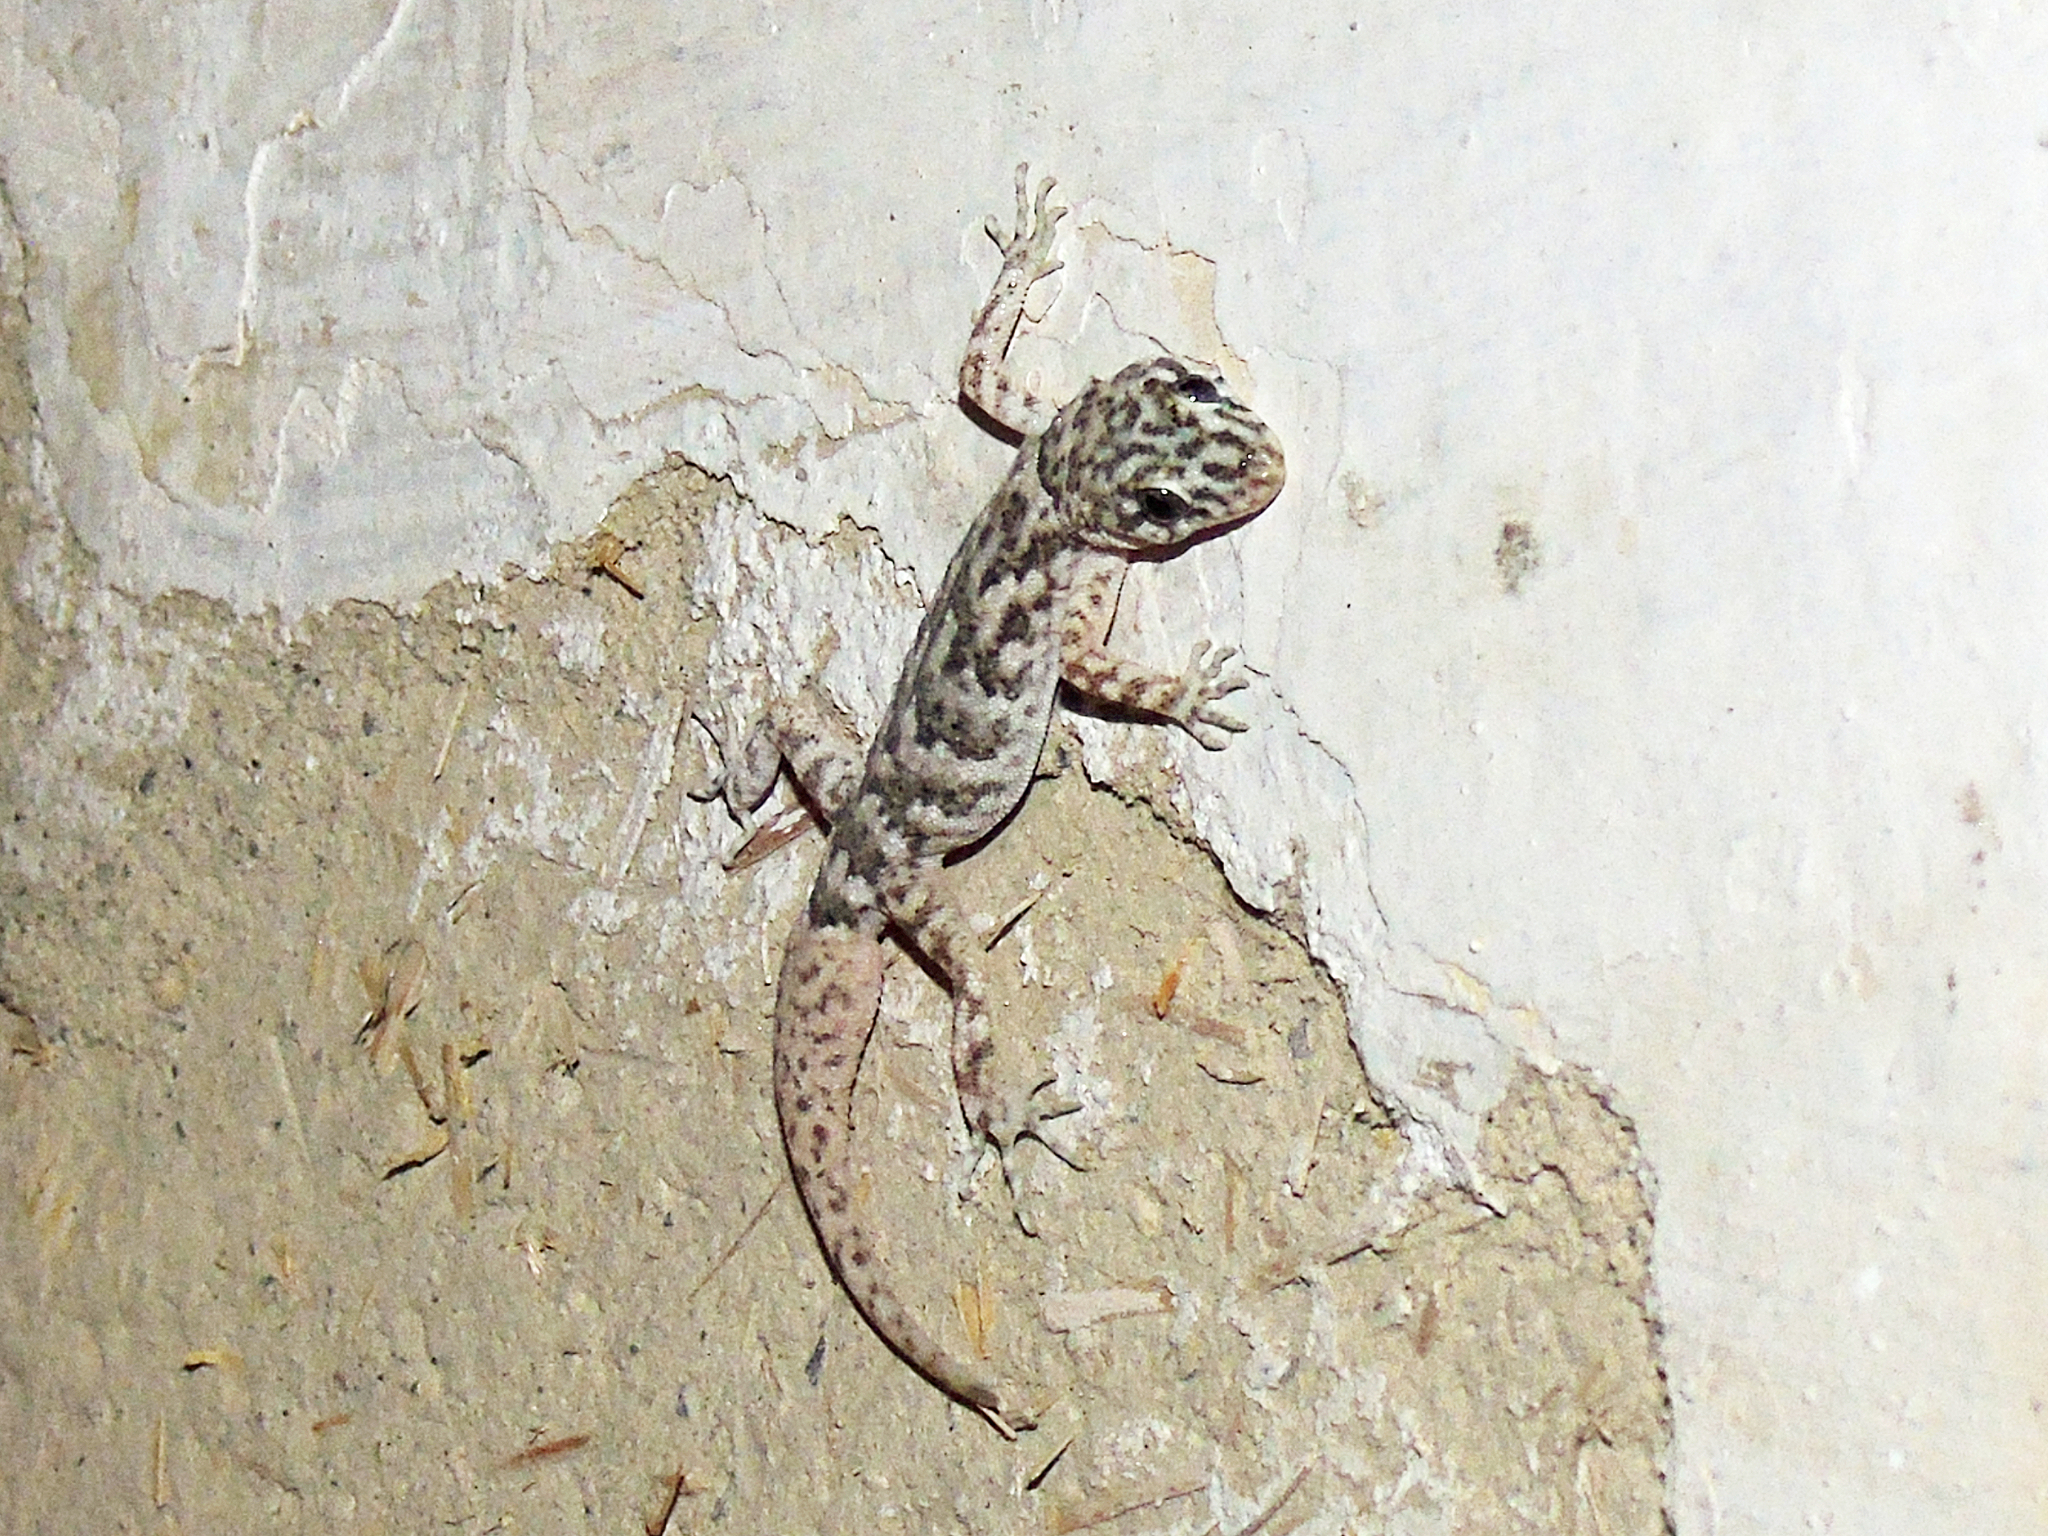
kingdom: Animalia
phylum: Chordata
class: Squamata
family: Gekkonidae
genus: Altiphylax
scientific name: Altiphylax stoliczkai
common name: Frontier bow-fingered gecko
